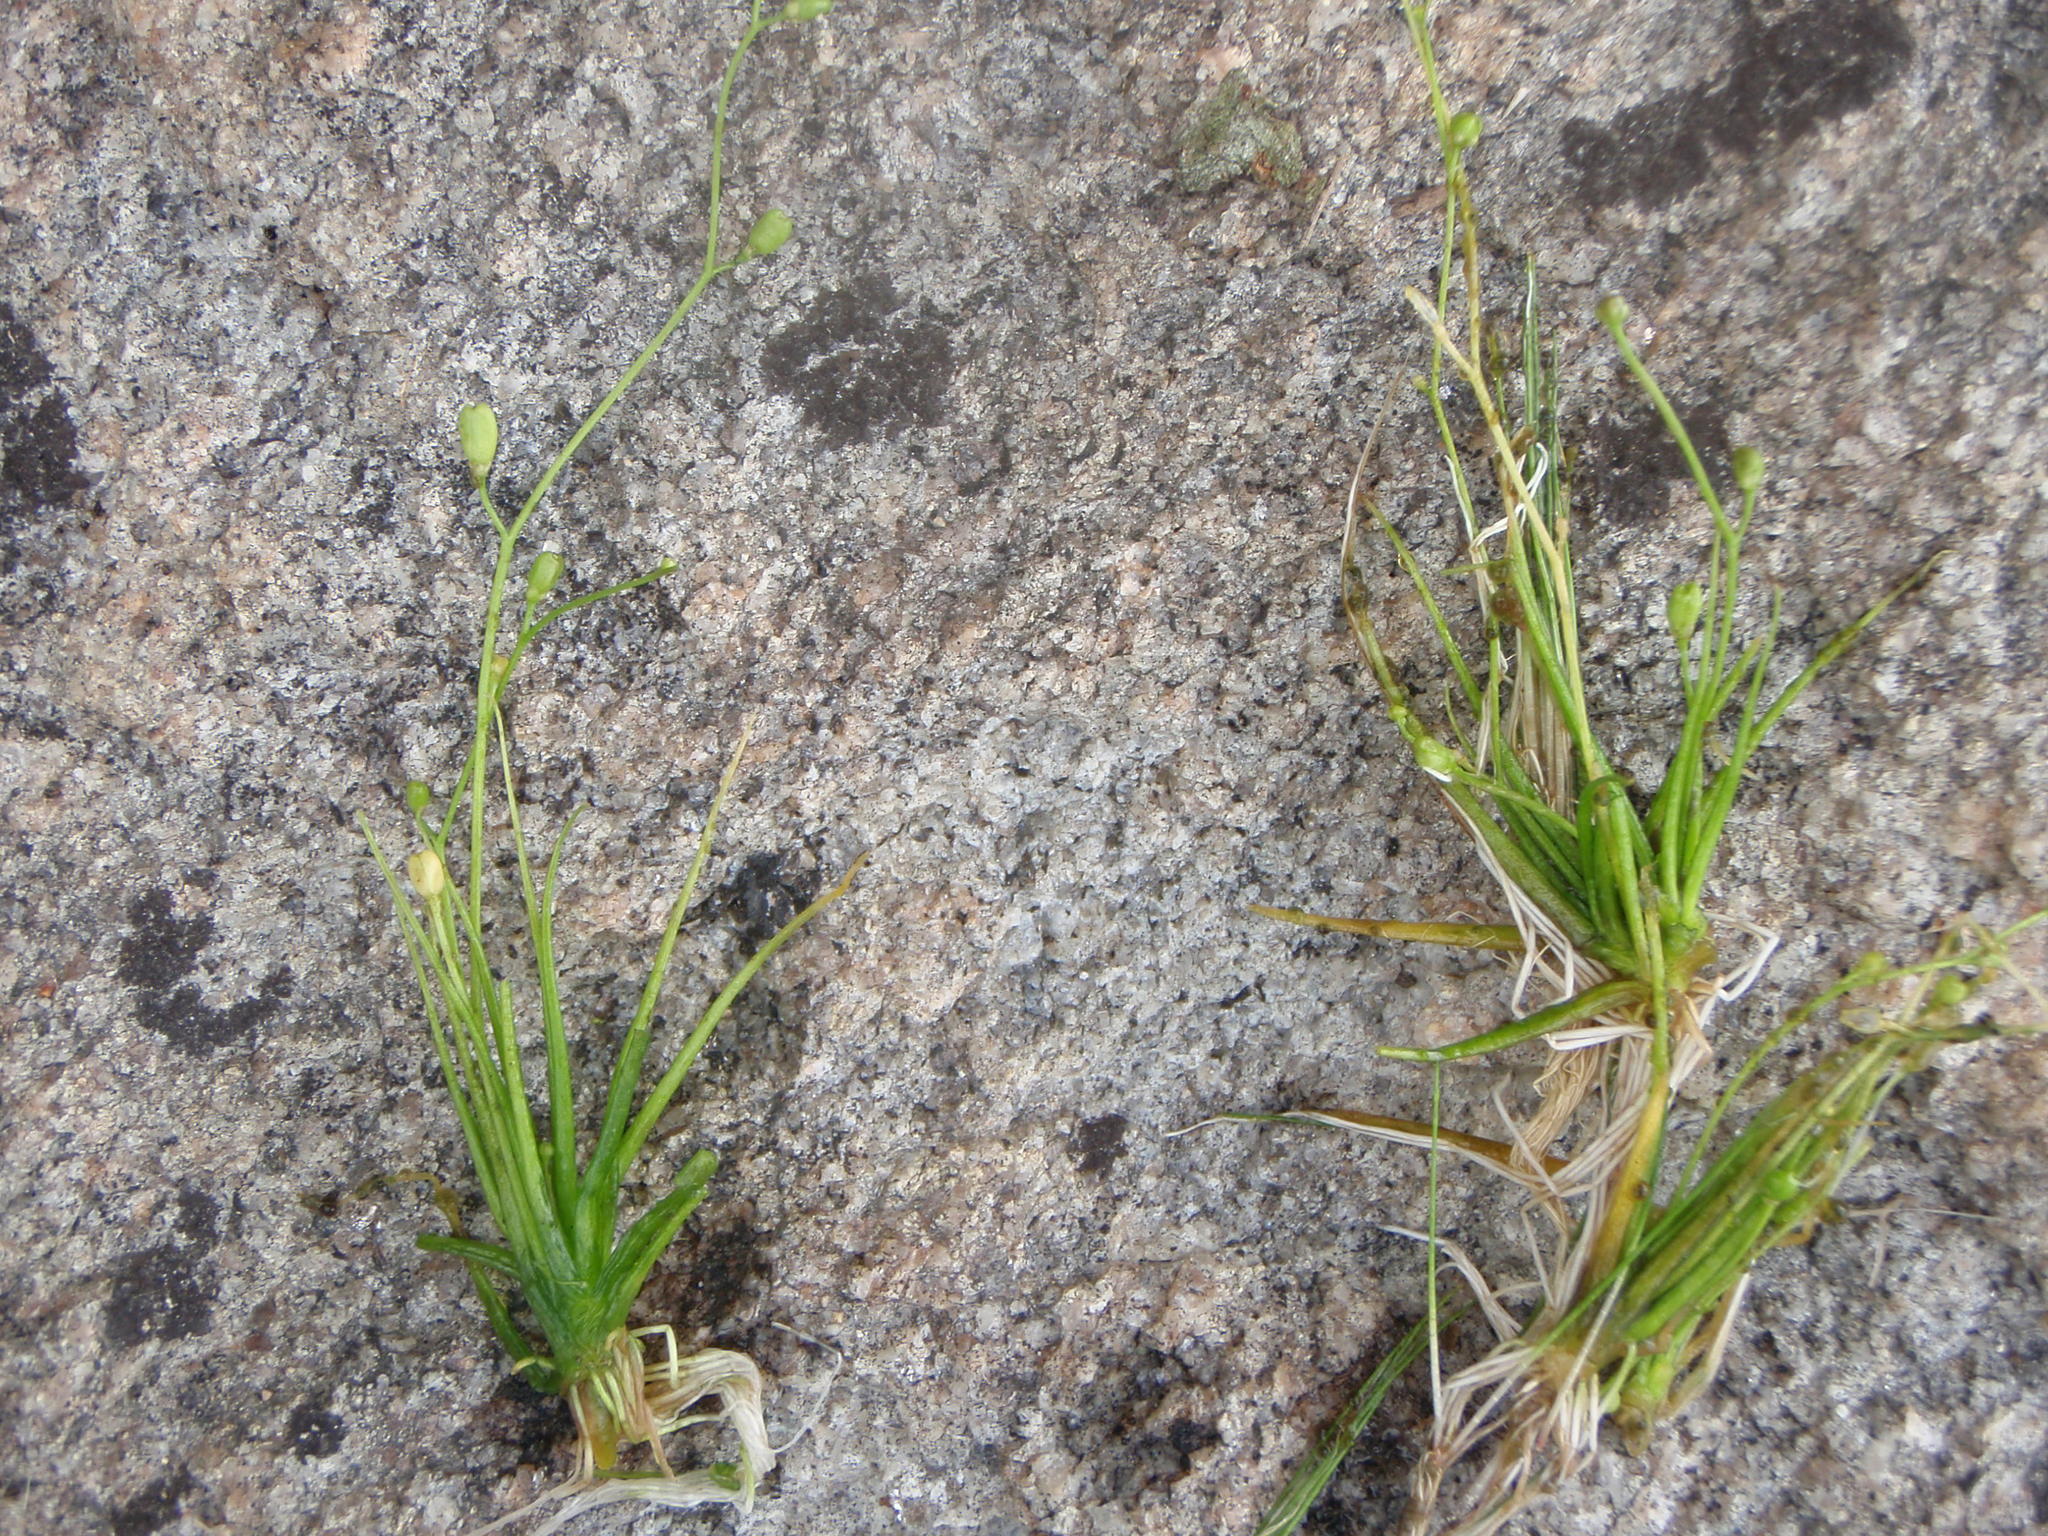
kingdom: Plantae
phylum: Tracheophyta
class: Magnoliopsida
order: Brassicales
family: Brassicaceae
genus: Subularia
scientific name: Subularia aquatica
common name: Awlwort
